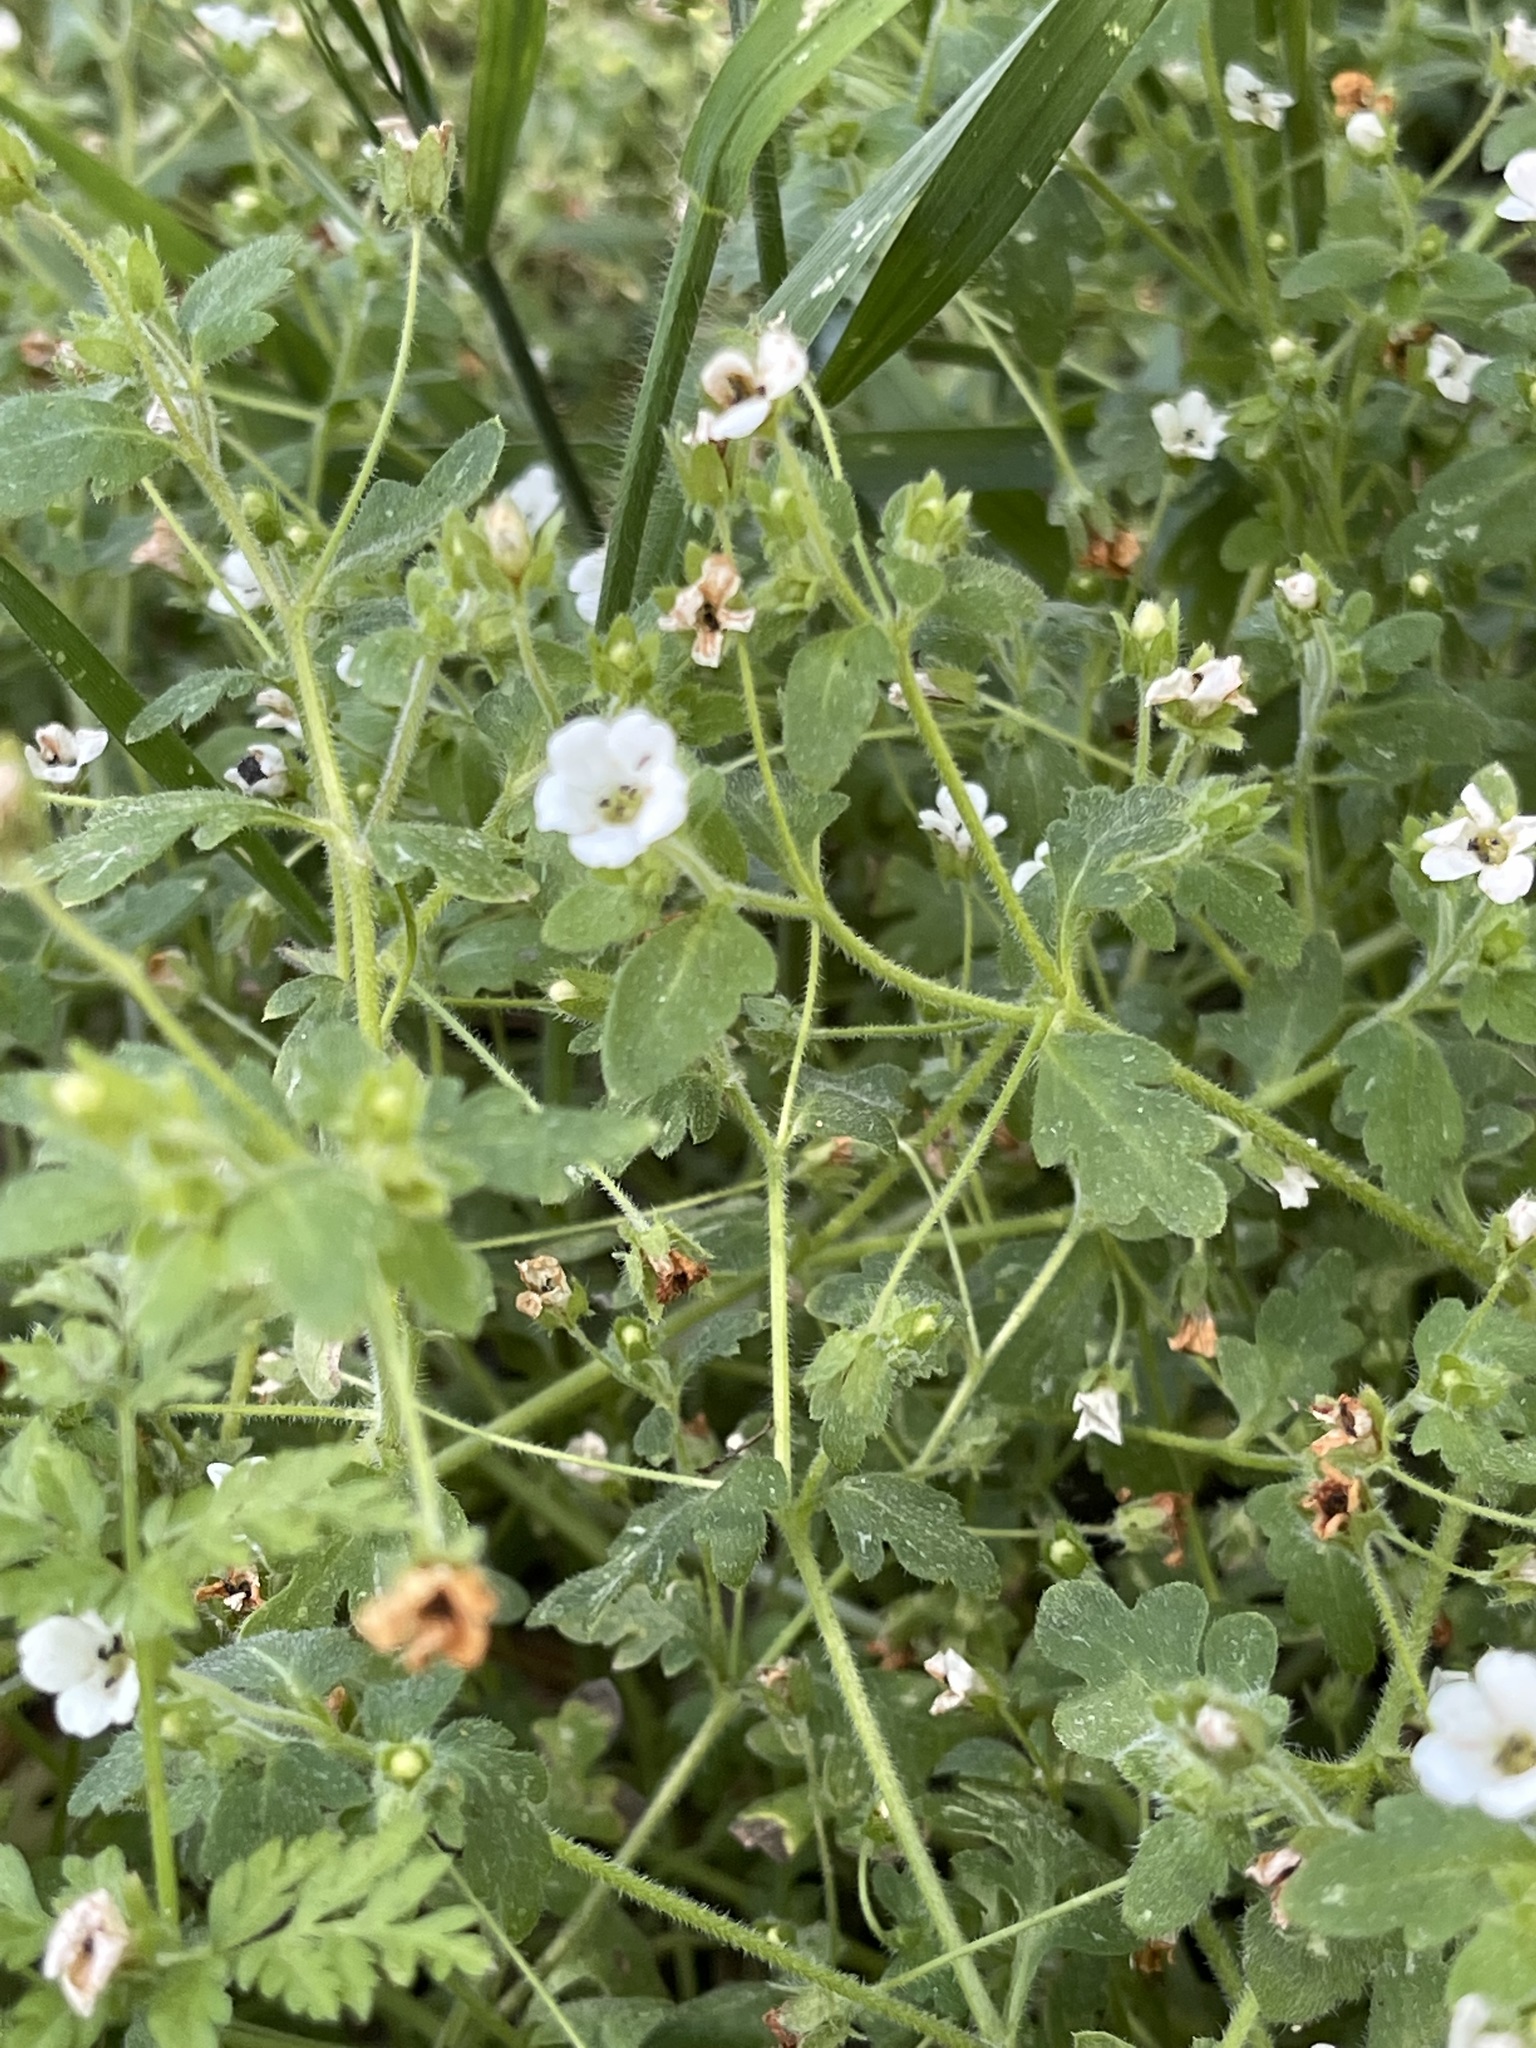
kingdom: Plantae
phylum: Tracheophyta
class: Magnoliopsida
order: Boraginales
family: Hydrophyllaceae
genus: Nemophila
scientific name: Nemophila heterophylla
